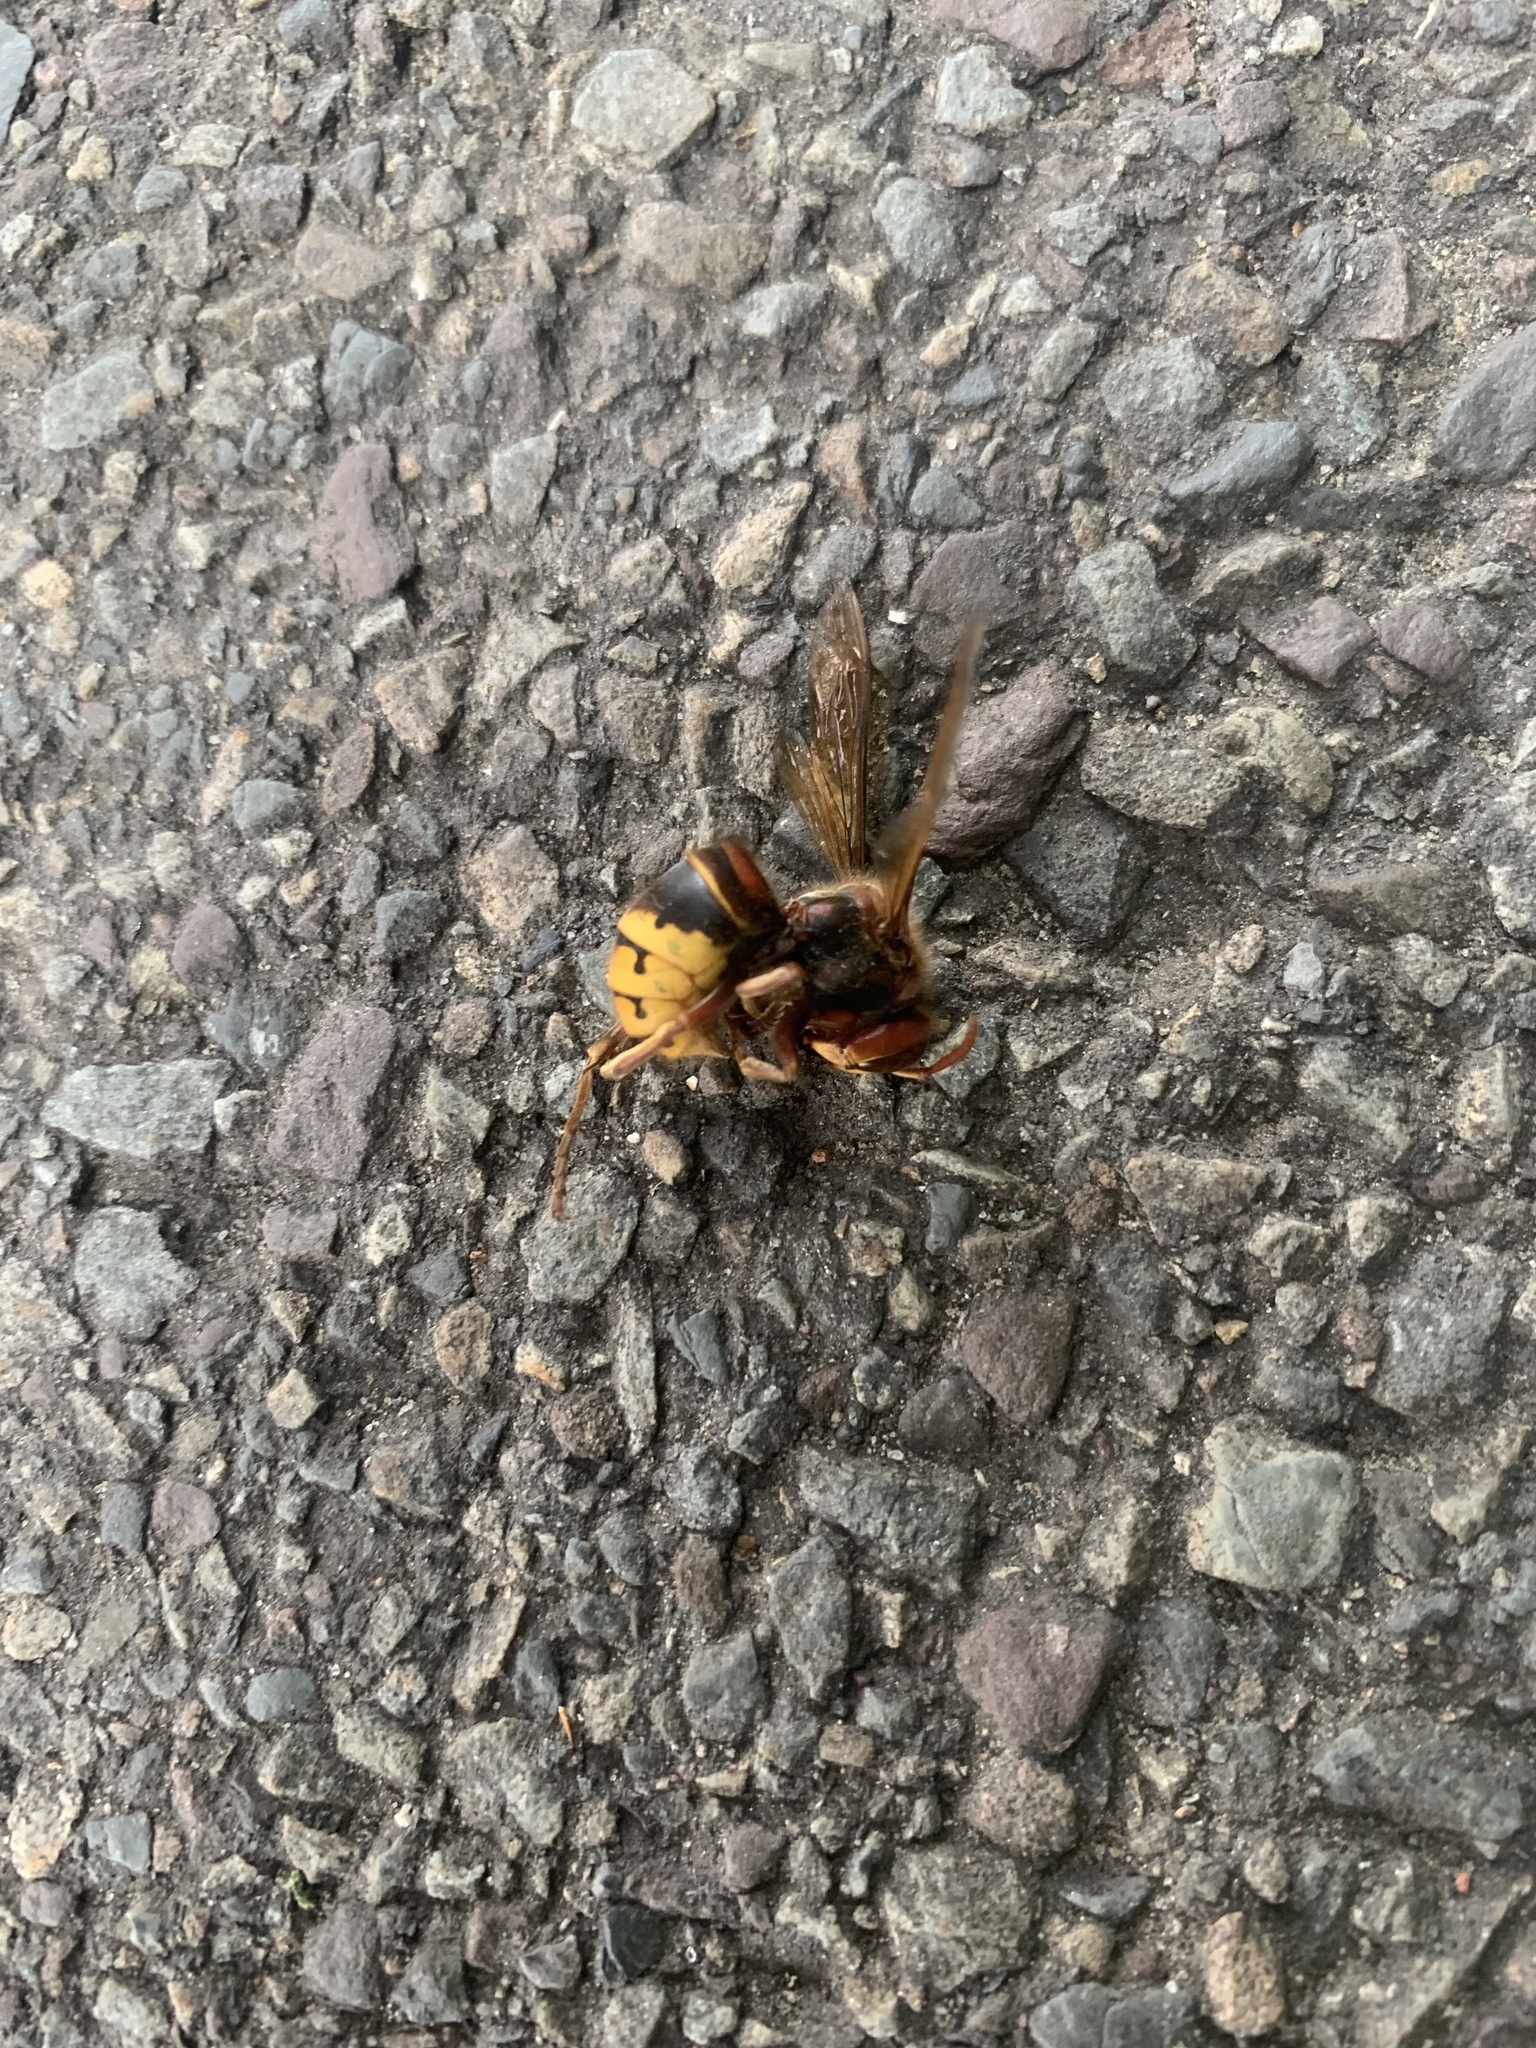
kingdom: Animalia
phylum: Arthropoda
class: Insecta
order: Hymenoptera
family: Vespidae
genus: Vespa
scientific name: Vespa crabro
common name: Hornet
